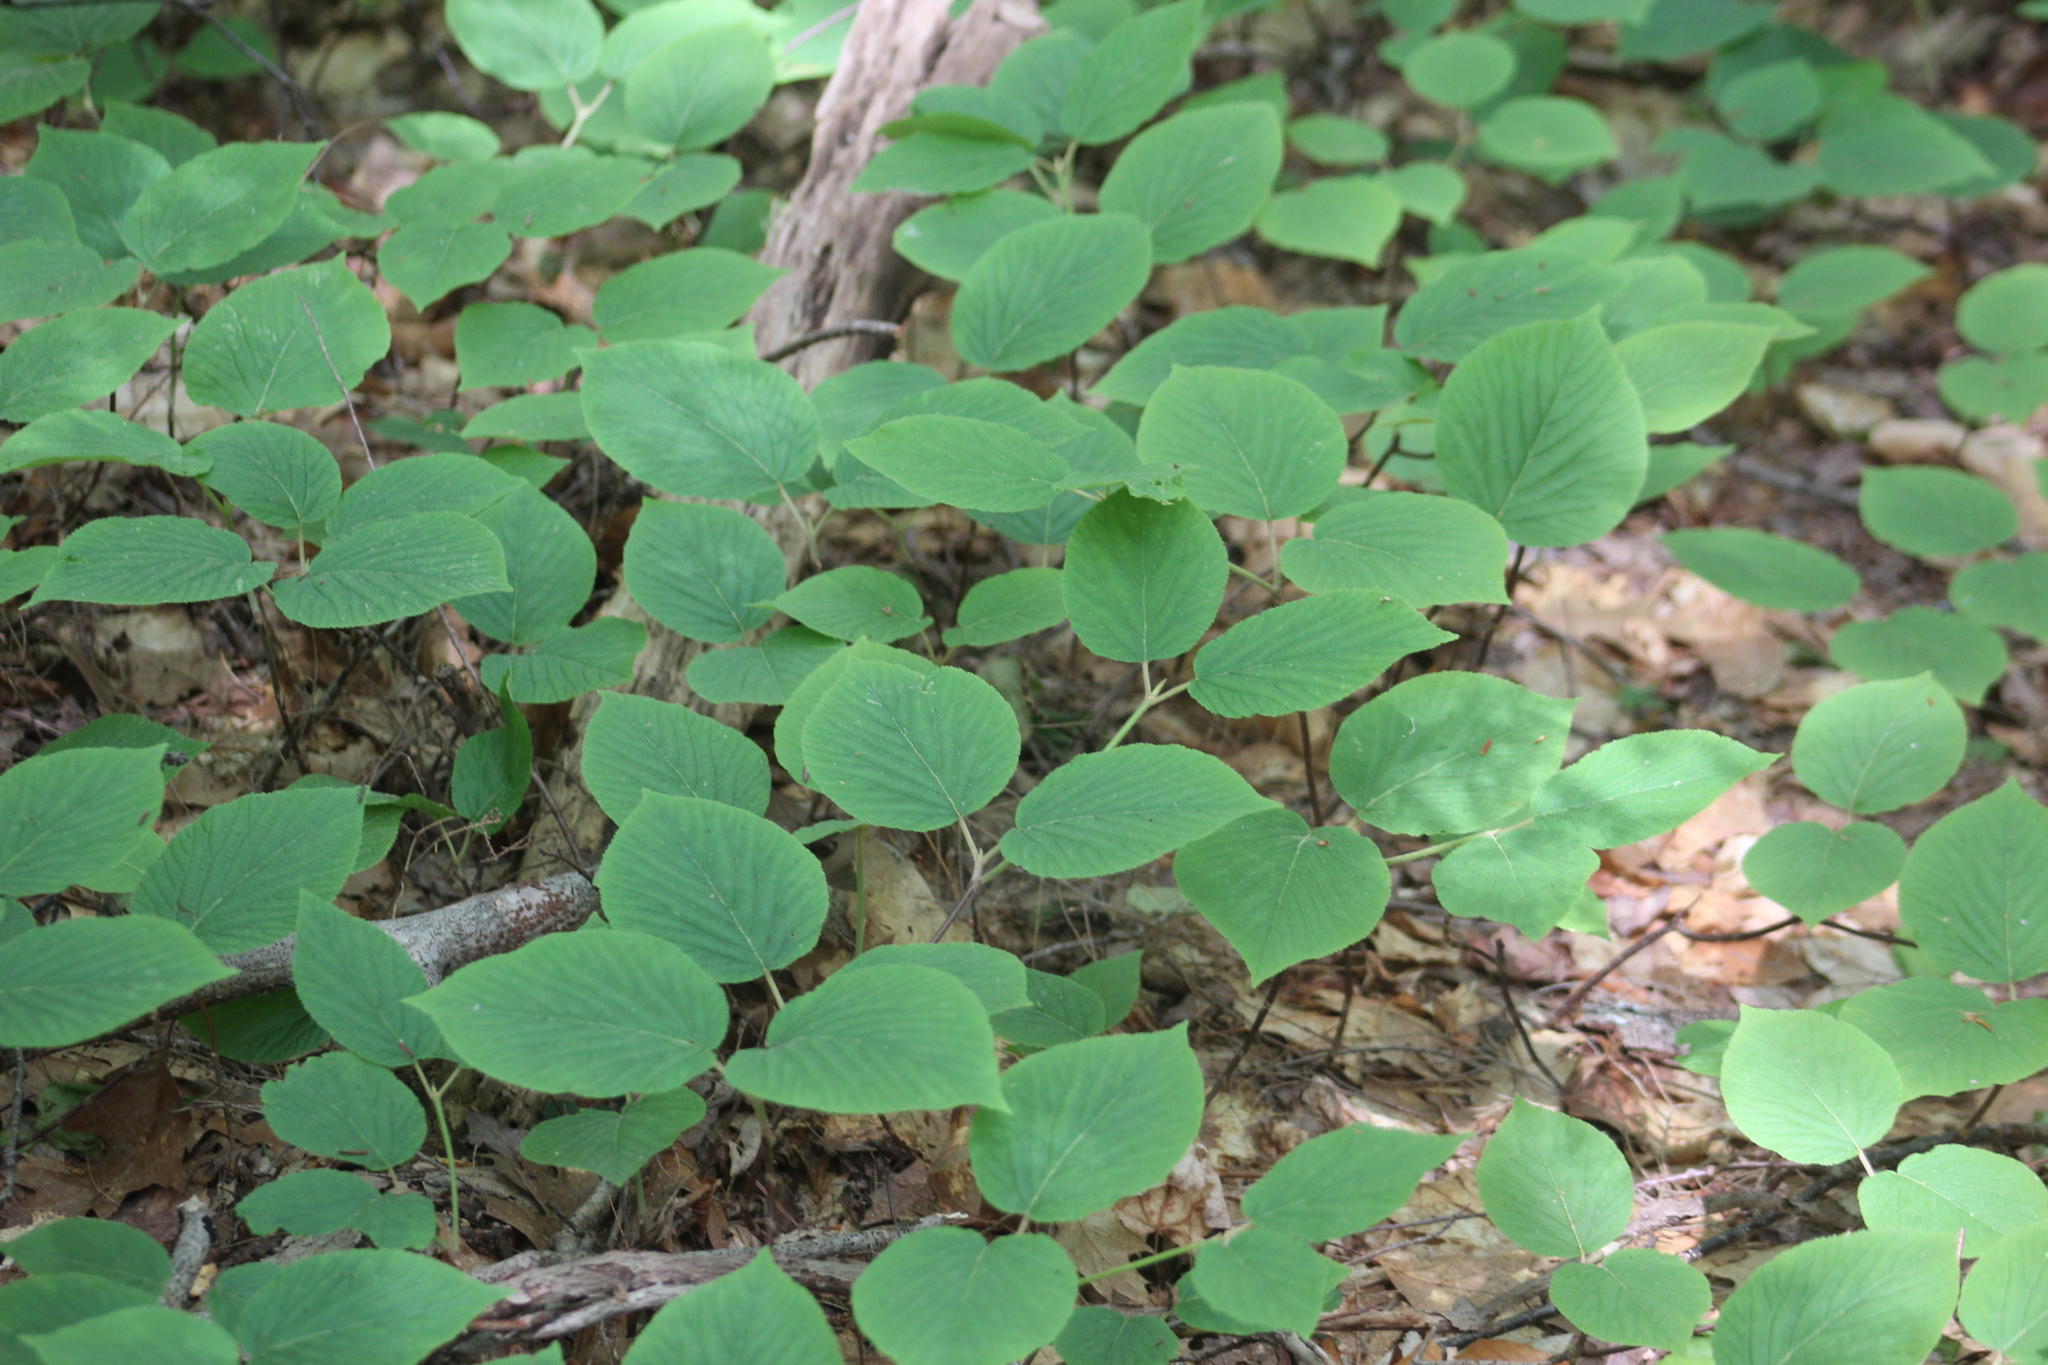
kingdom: Plantae
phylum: Tracheophyta
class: Magnoliopsida
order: Dipsacales
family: Viburnaceae
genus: Viburnum
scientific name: Viburnum lantanoides
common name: Hobblebush
